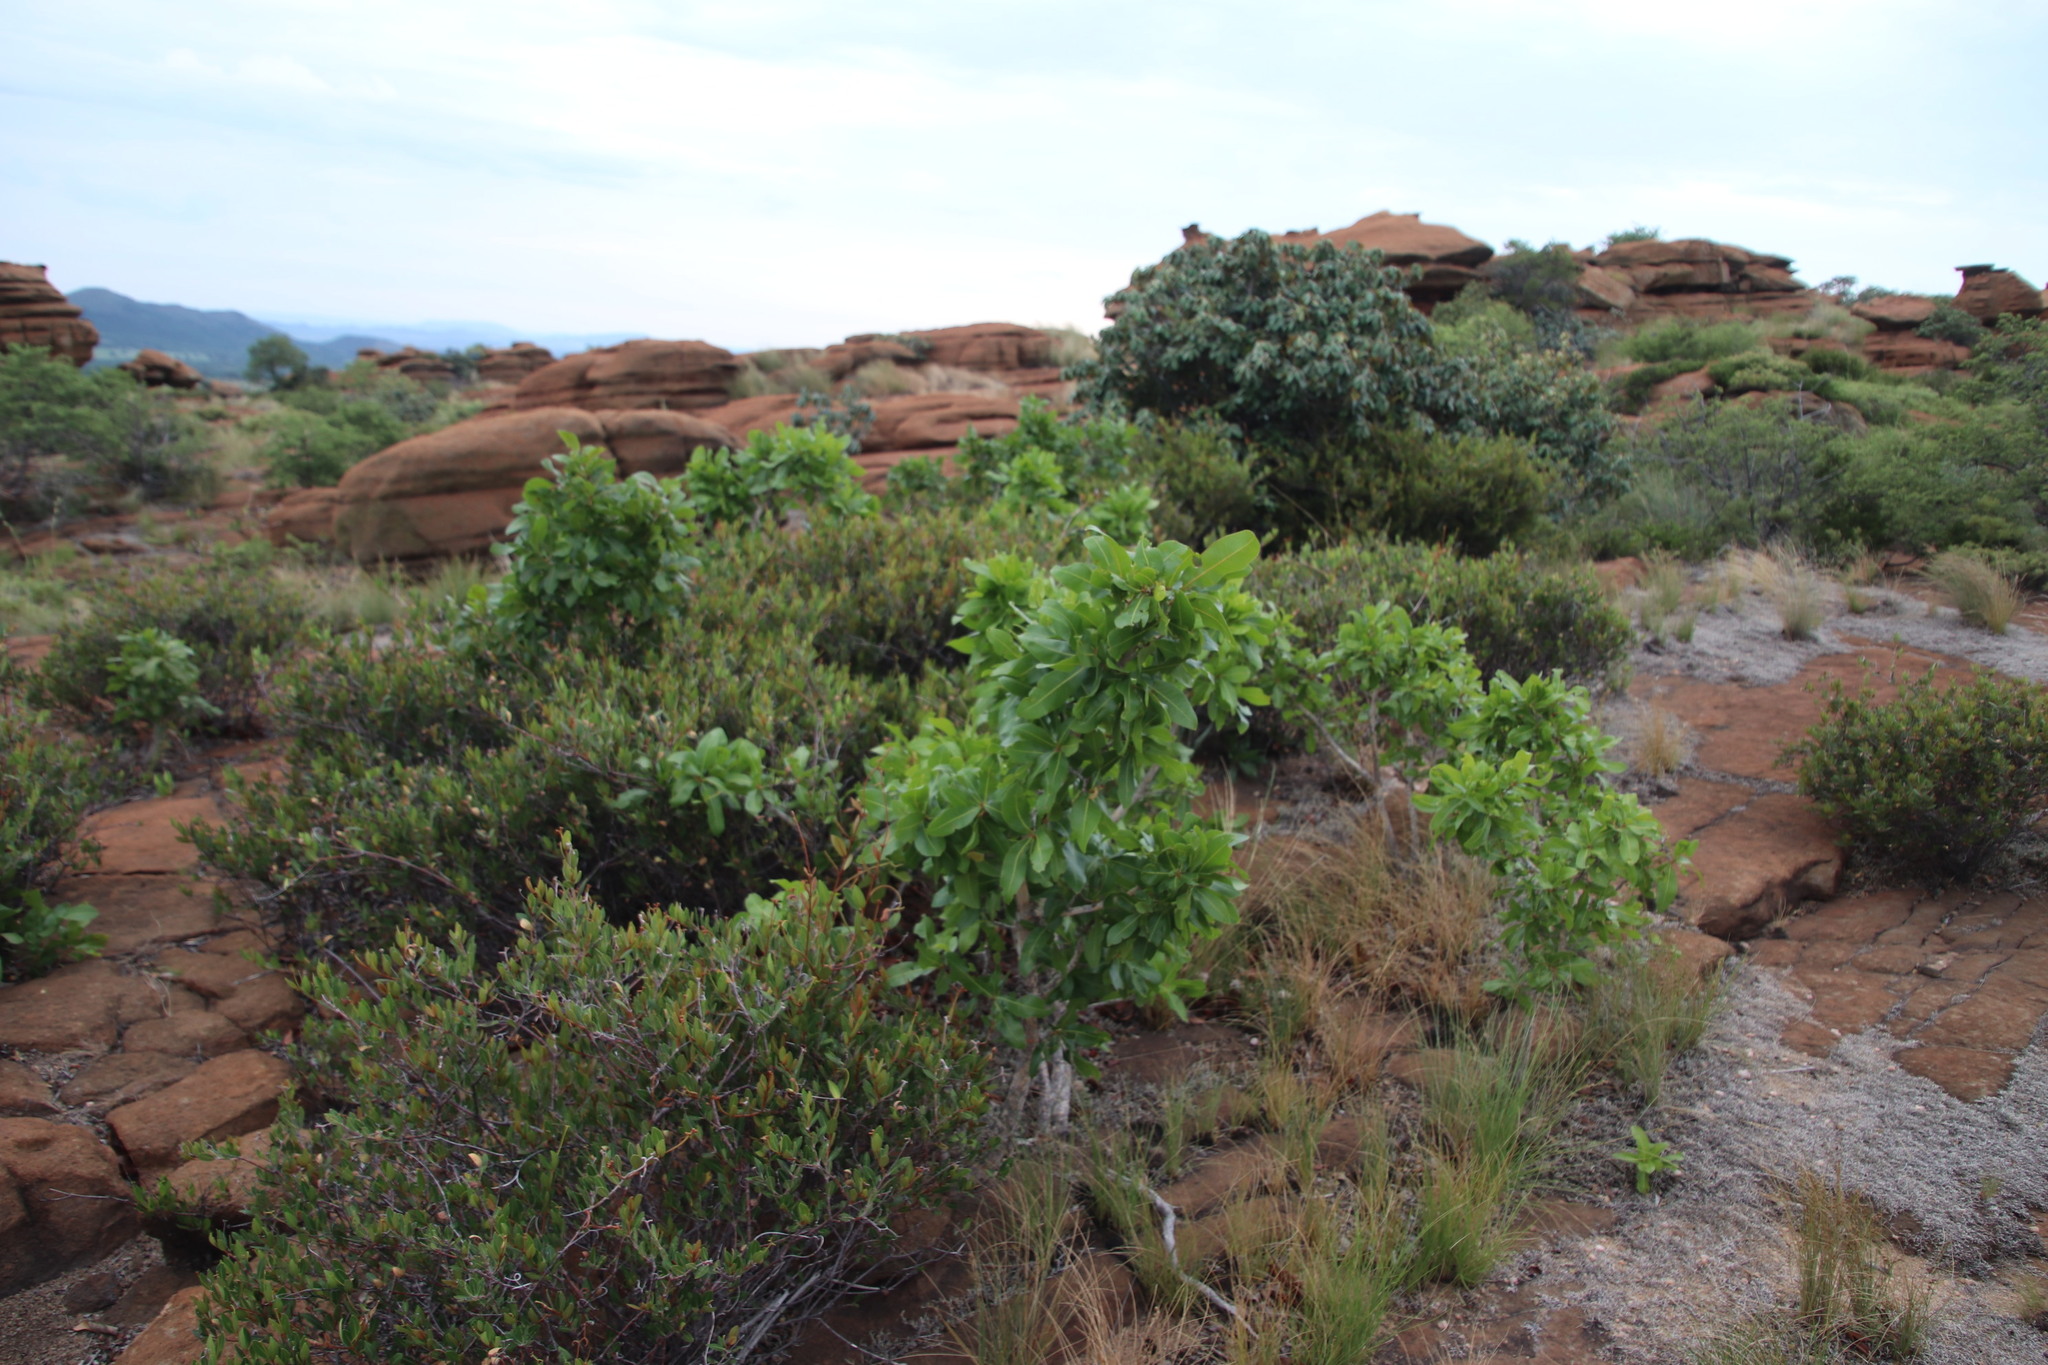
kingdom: Plantae
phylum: Tracheophyta
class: Magnoliopsida
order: Malpighiales
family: Ochnaceae
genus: Ochna
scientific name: Ochna pulchra
